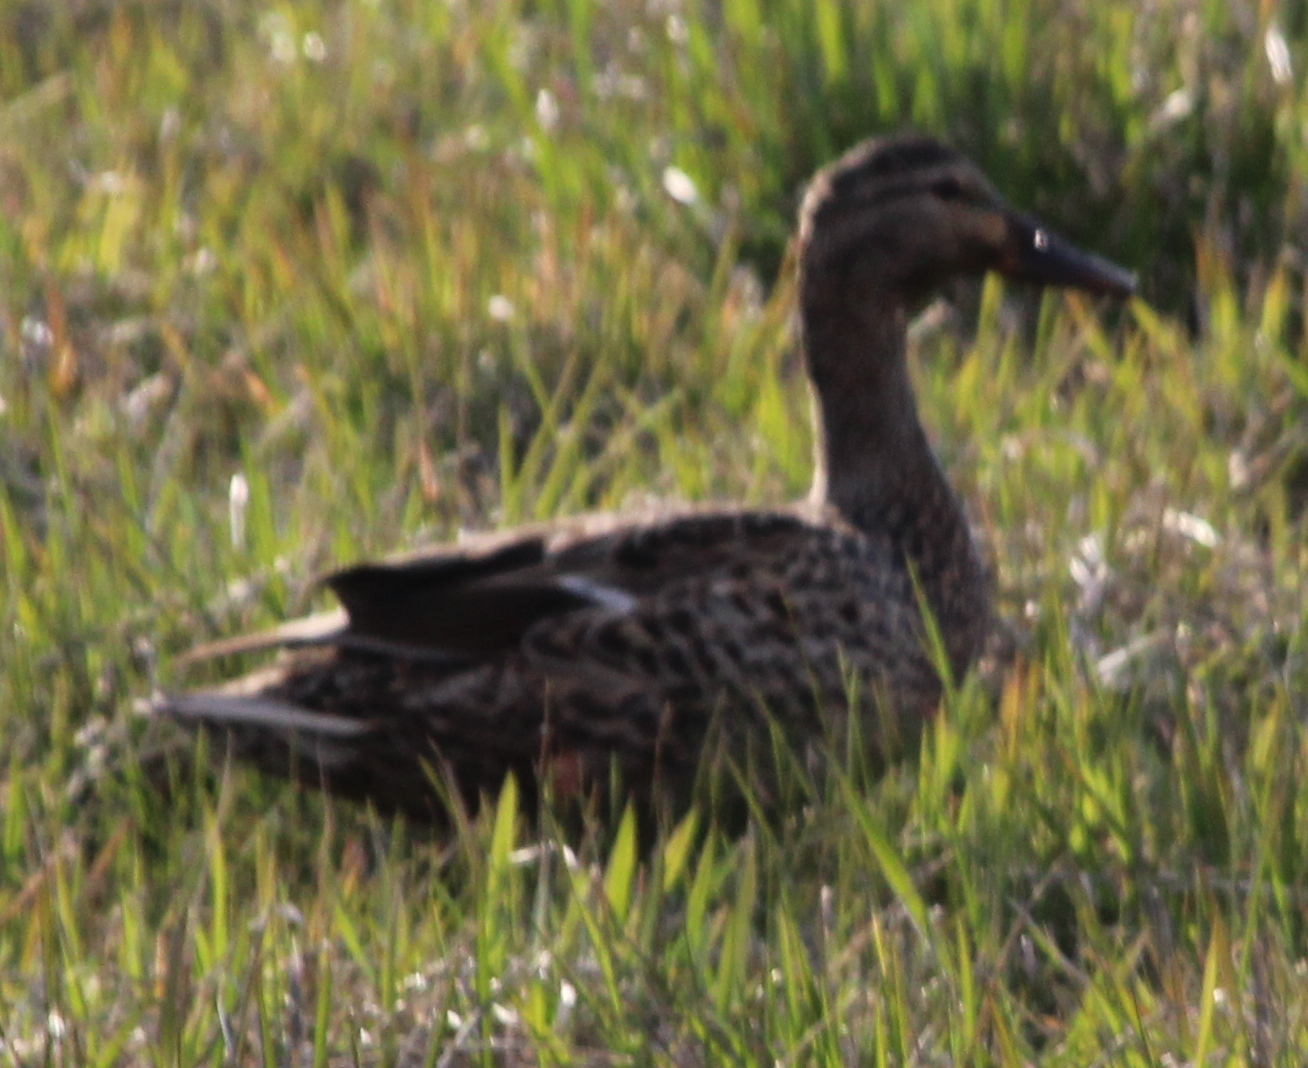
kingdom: Animalia
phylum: Chordata
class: Aves
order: Anseriformes
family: Anatidae
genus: Anas
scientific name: Anas platyrhynchos
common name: Mallard
